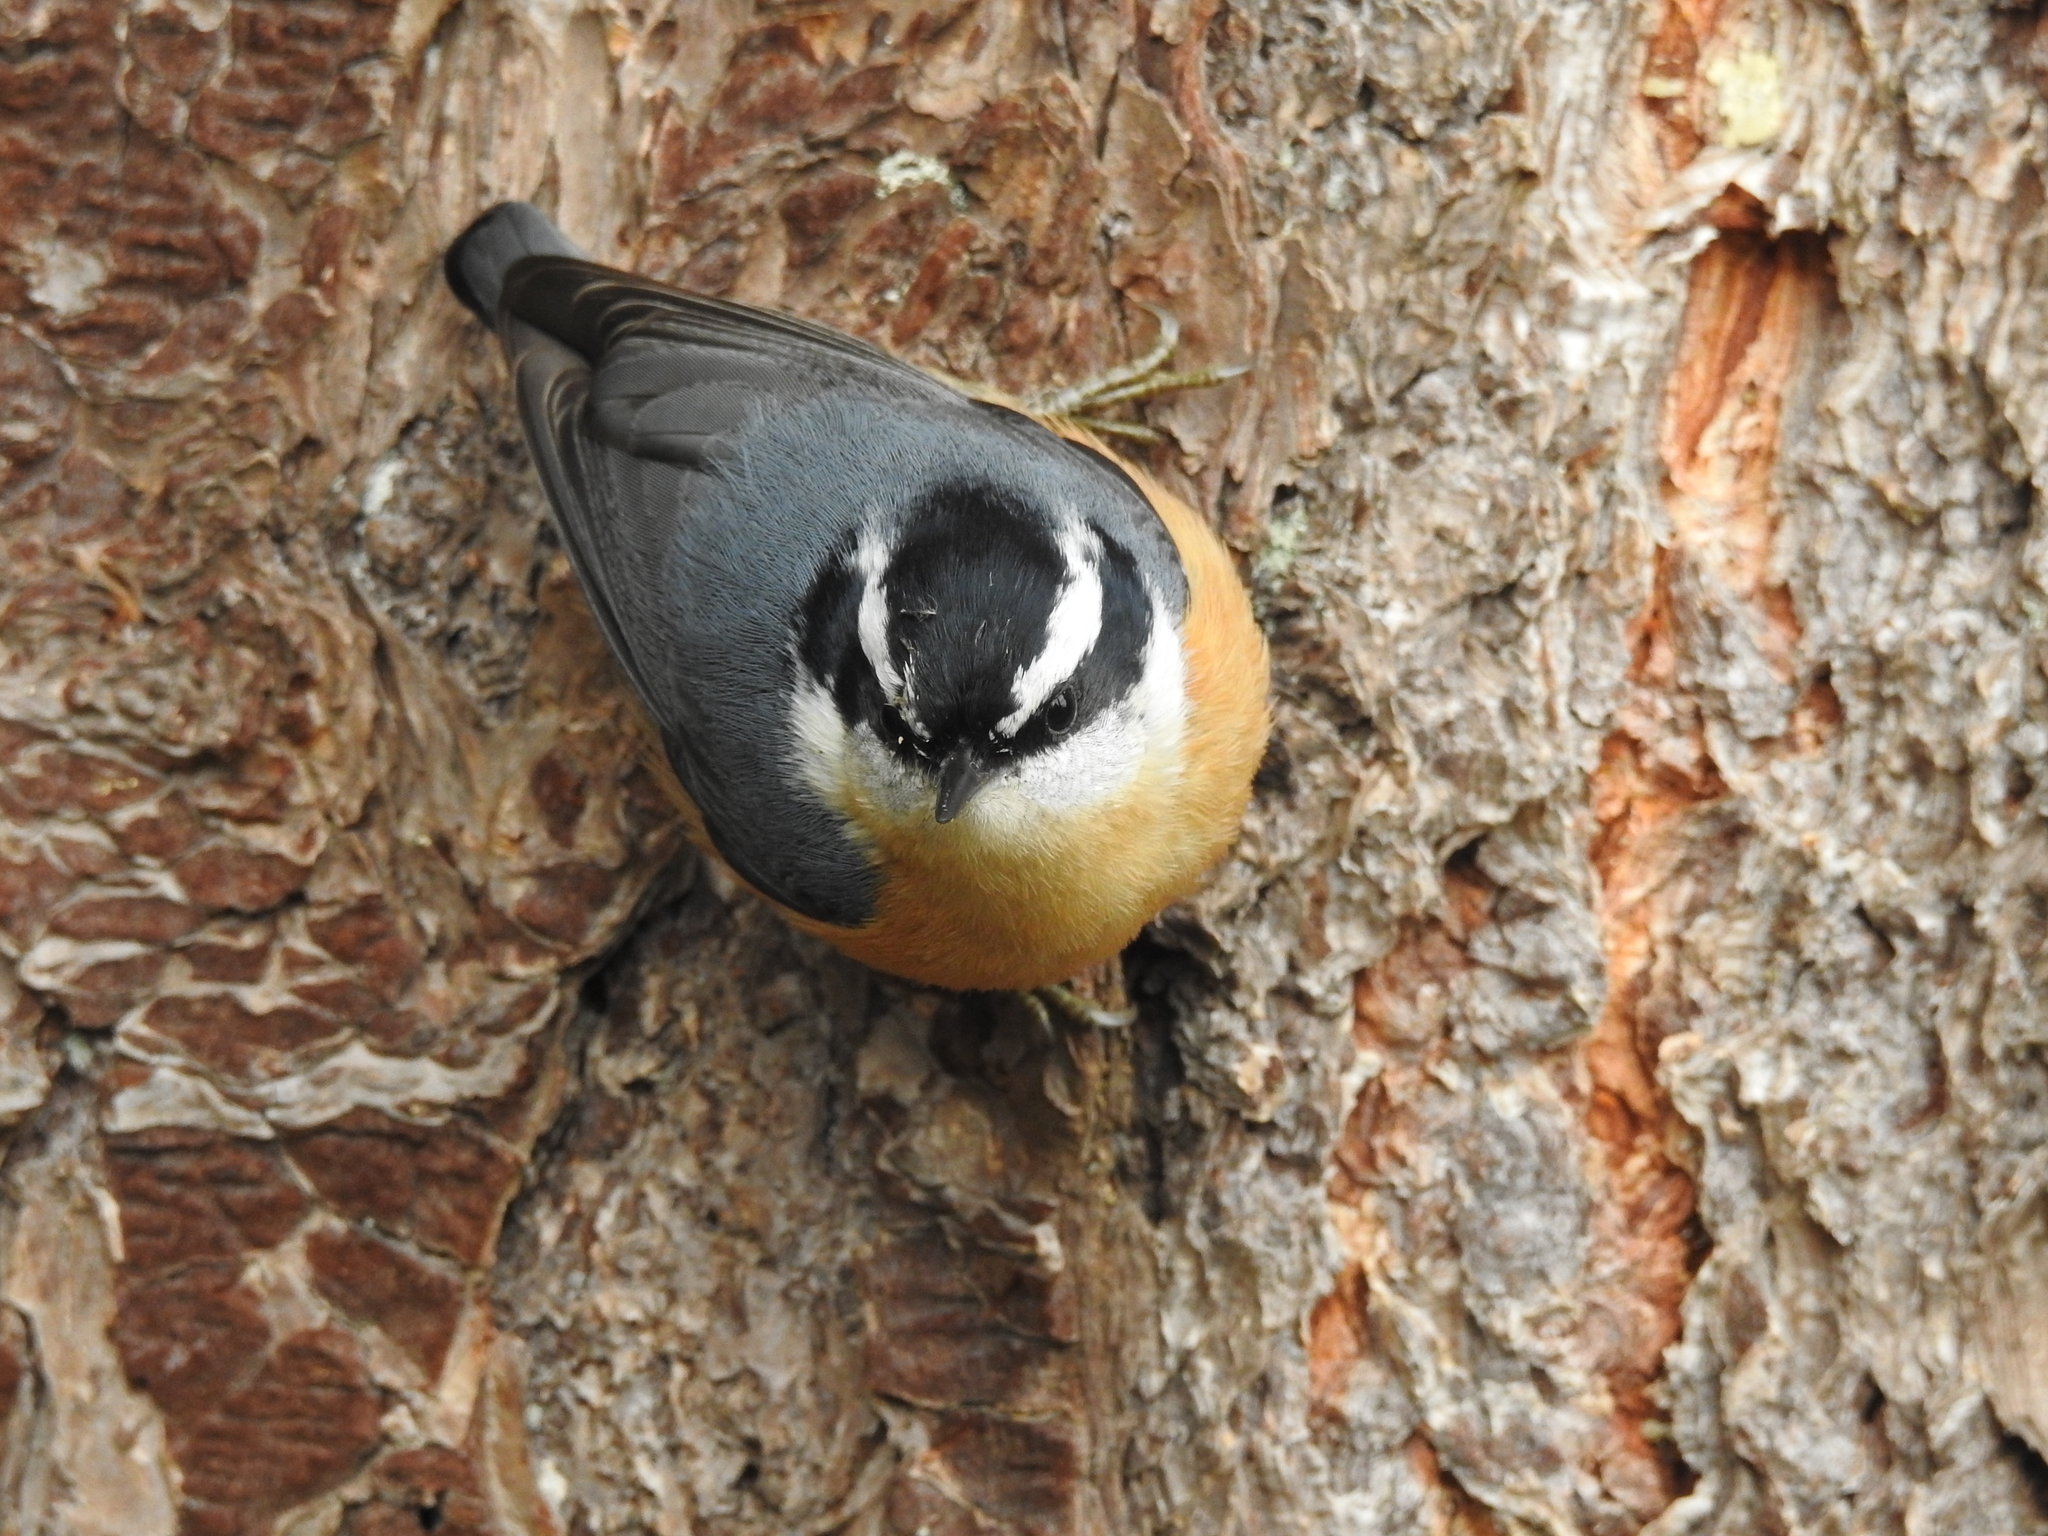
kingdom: Animalia
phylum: Chordata
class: Aves
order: Passeriformes
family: Sittidae
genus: Sitta
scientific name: Sitta canadensis
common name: Red-breasted nuthatch
